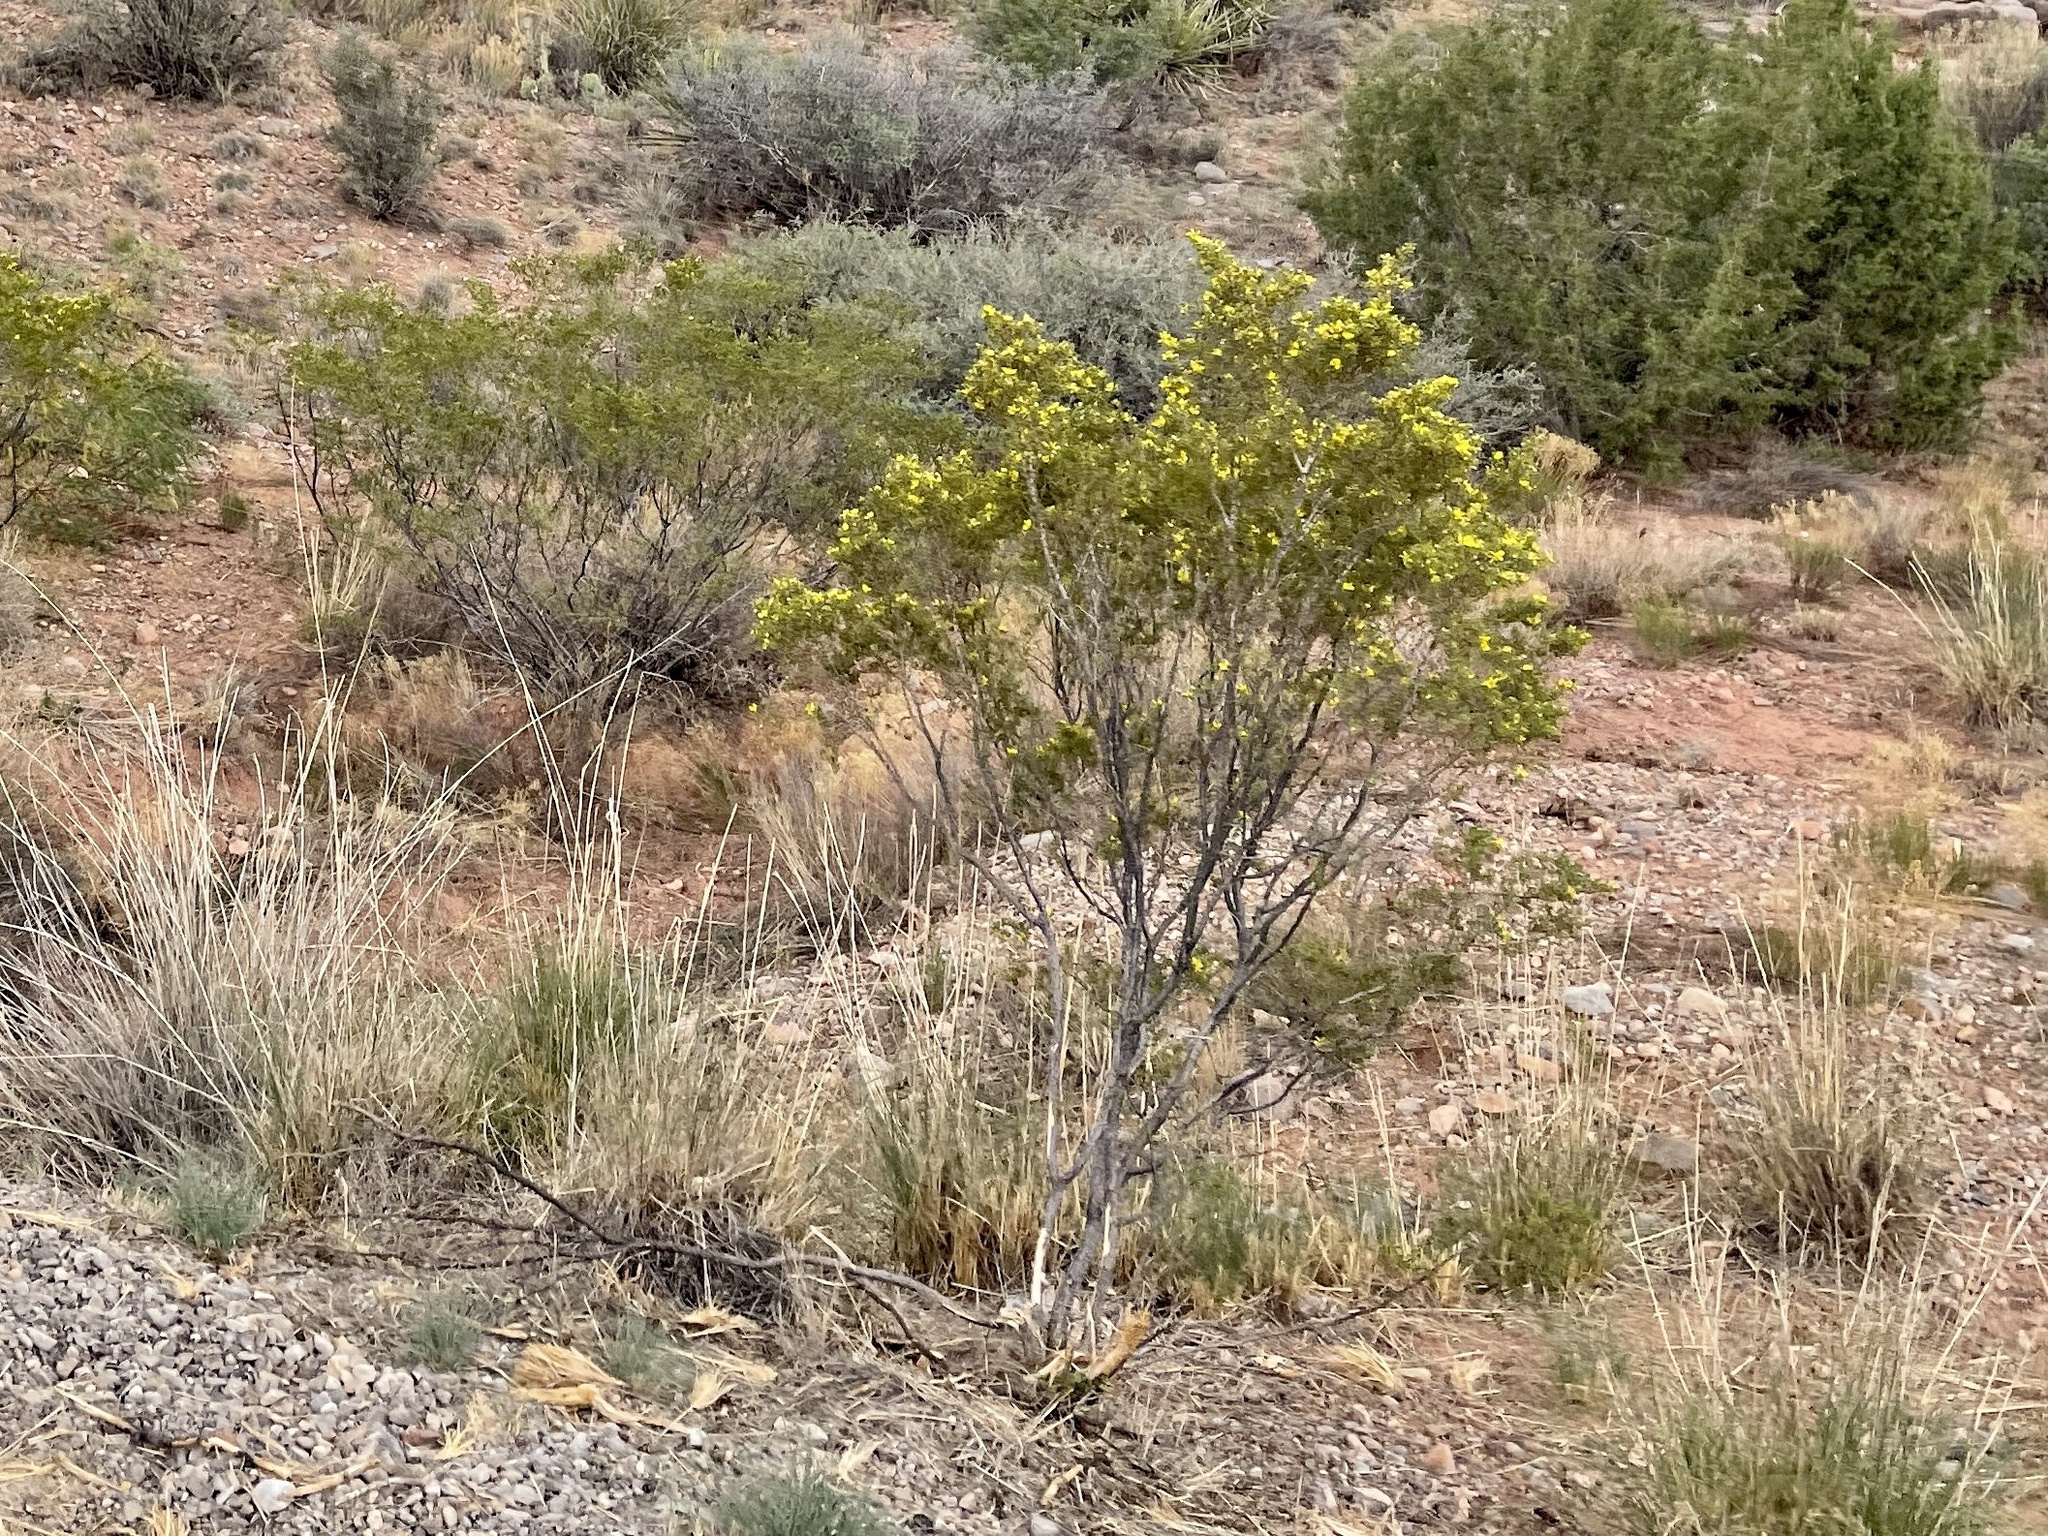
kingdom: Plantae
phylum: Tracheophyta
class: Magnoliopsida
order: Zygophyllales
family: Zygophyllaceae
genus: Larrea
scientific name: Larrea tridentata
